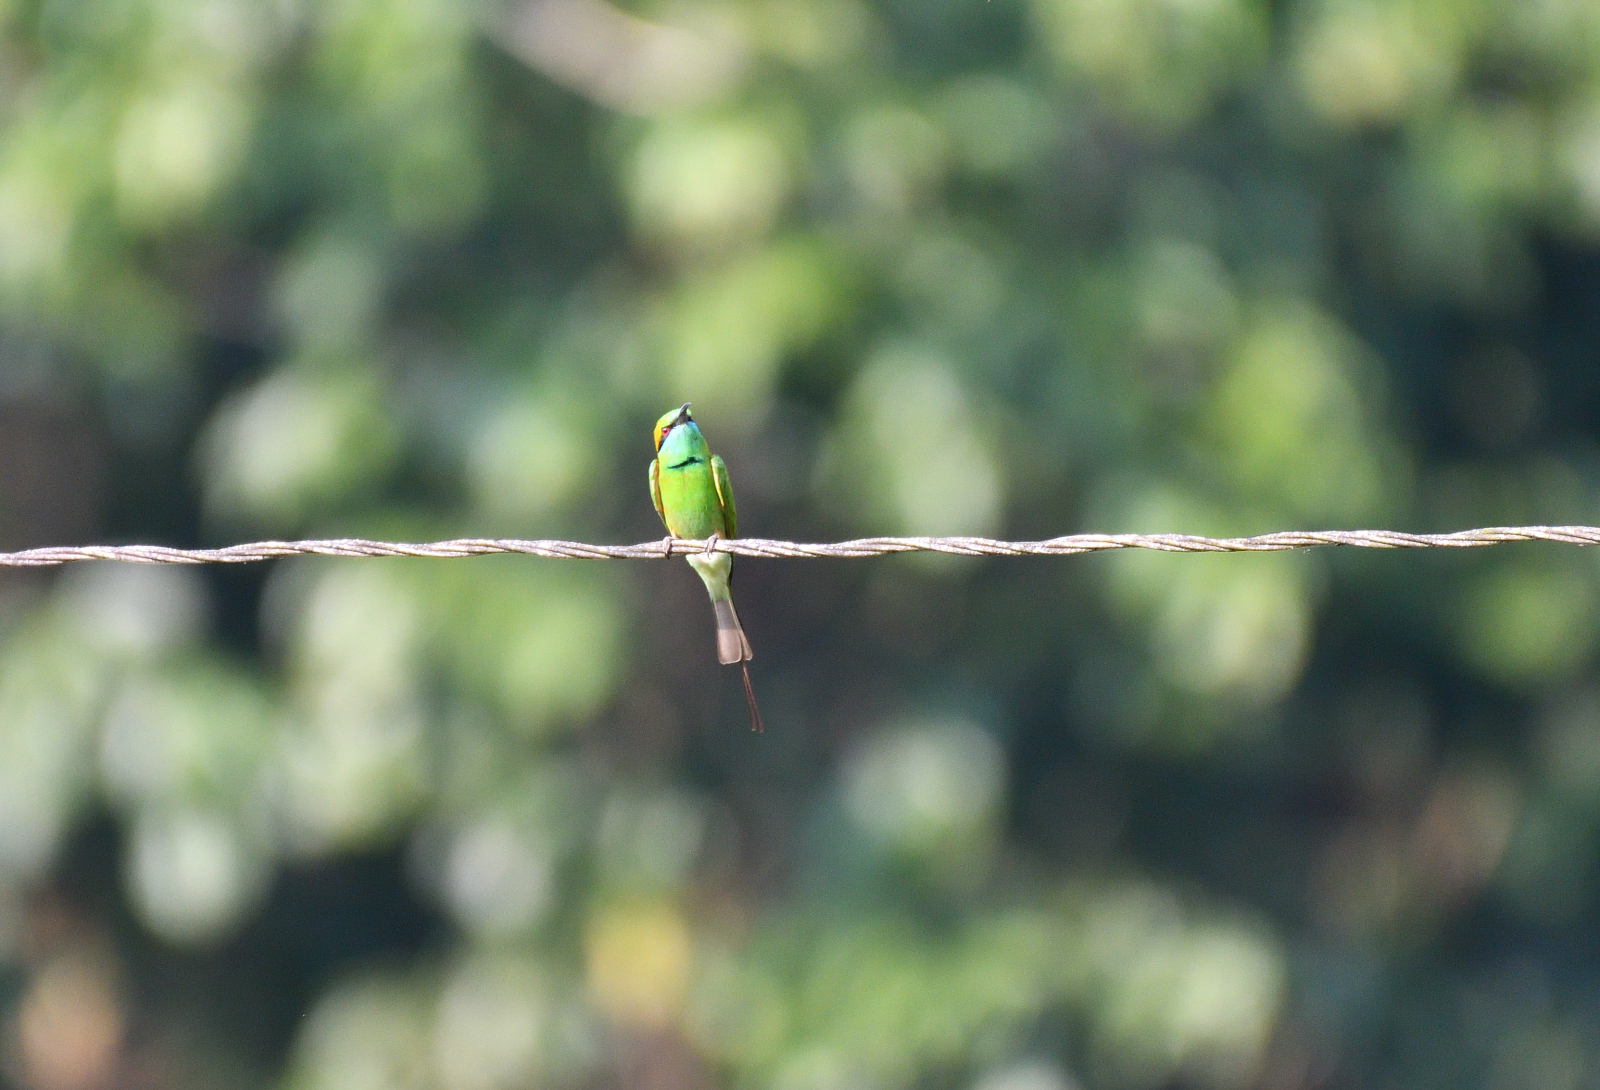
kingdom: Animalia
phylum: Chordata
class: Aves
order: Coraciiformes
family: Meropidae
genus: Merops
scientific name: Merops orientalis
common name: Green bee-eater
